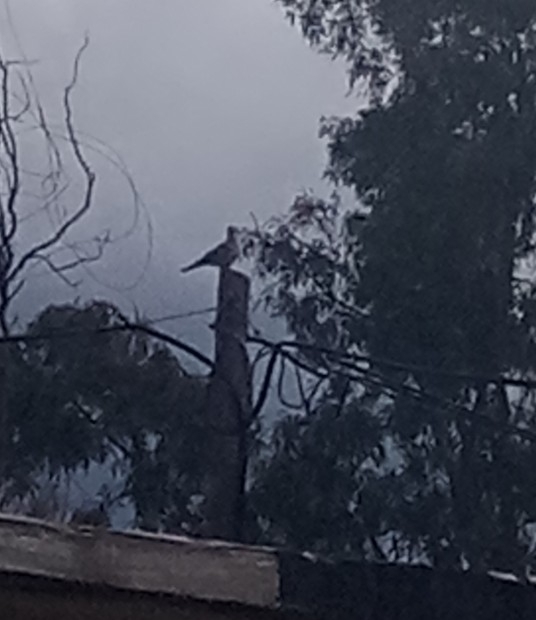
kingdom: Animalia
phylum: Chordata
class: Aves
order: Columbiformes
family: Columbidae
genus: Streptopelia
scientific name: Streptopelia decaocto
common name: Eurasian collared dove
